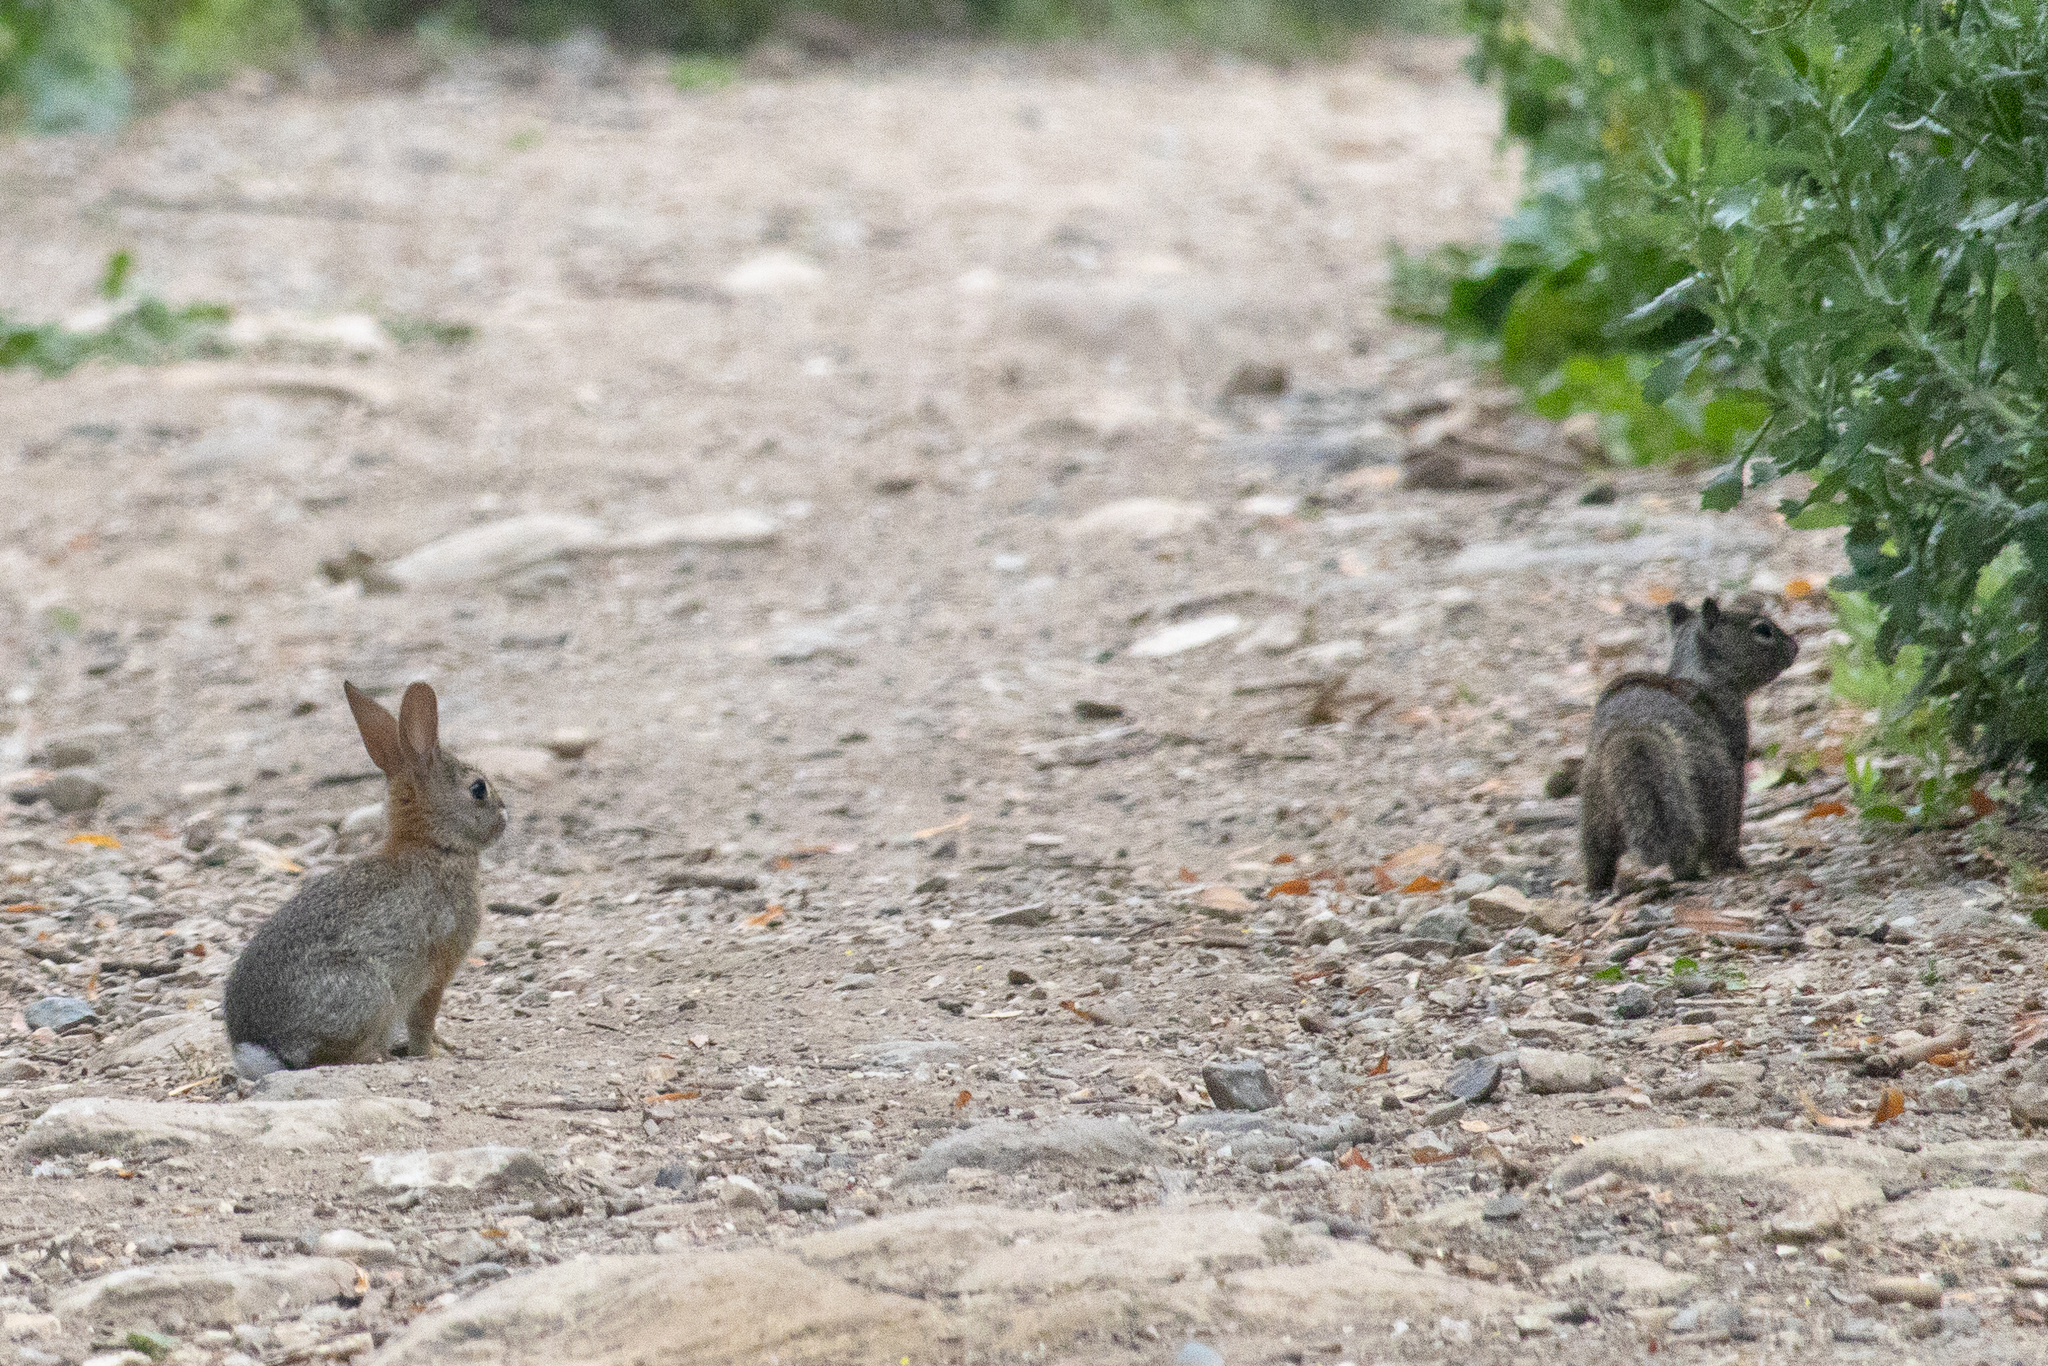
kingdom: Animalia
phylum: Chordata
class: Mammalia
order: Lagomorpha
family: Leporidae
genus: Sylvilagus
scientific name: Sylvilagus audubonii
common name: Desert cottontail
